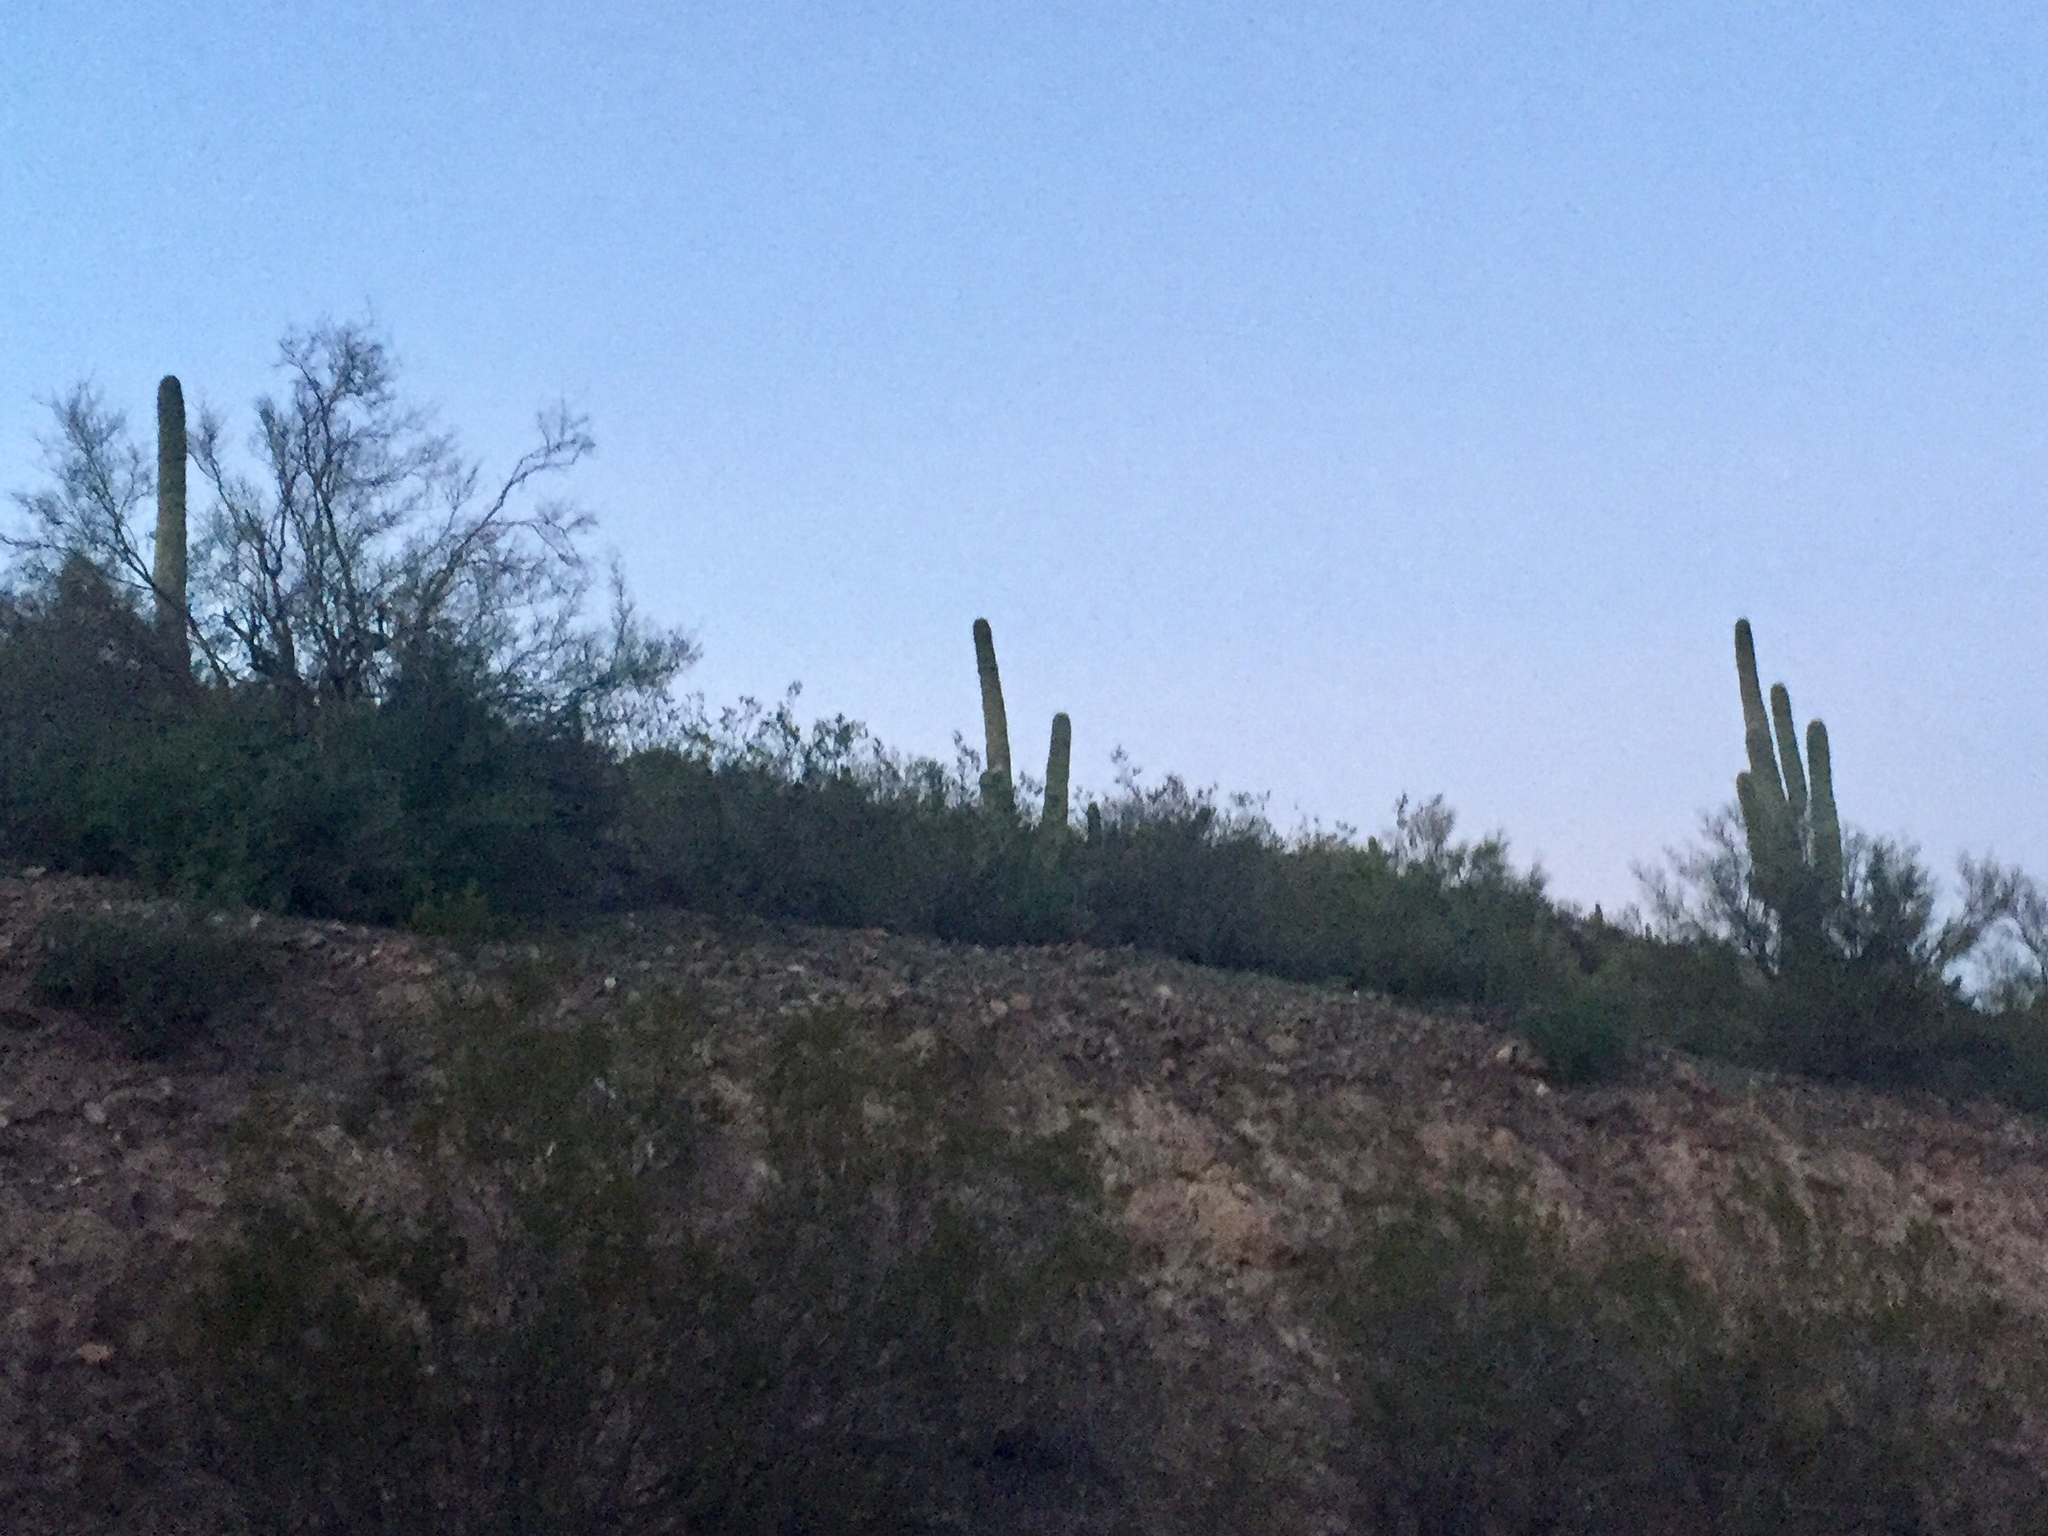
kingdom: Plantae
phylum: Tracheophyta
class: Magnoliopsida
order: Caryophyllales
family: Cactaceae
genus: Carnegiea
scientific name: Carnegiea gigantea
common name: Saguaro
